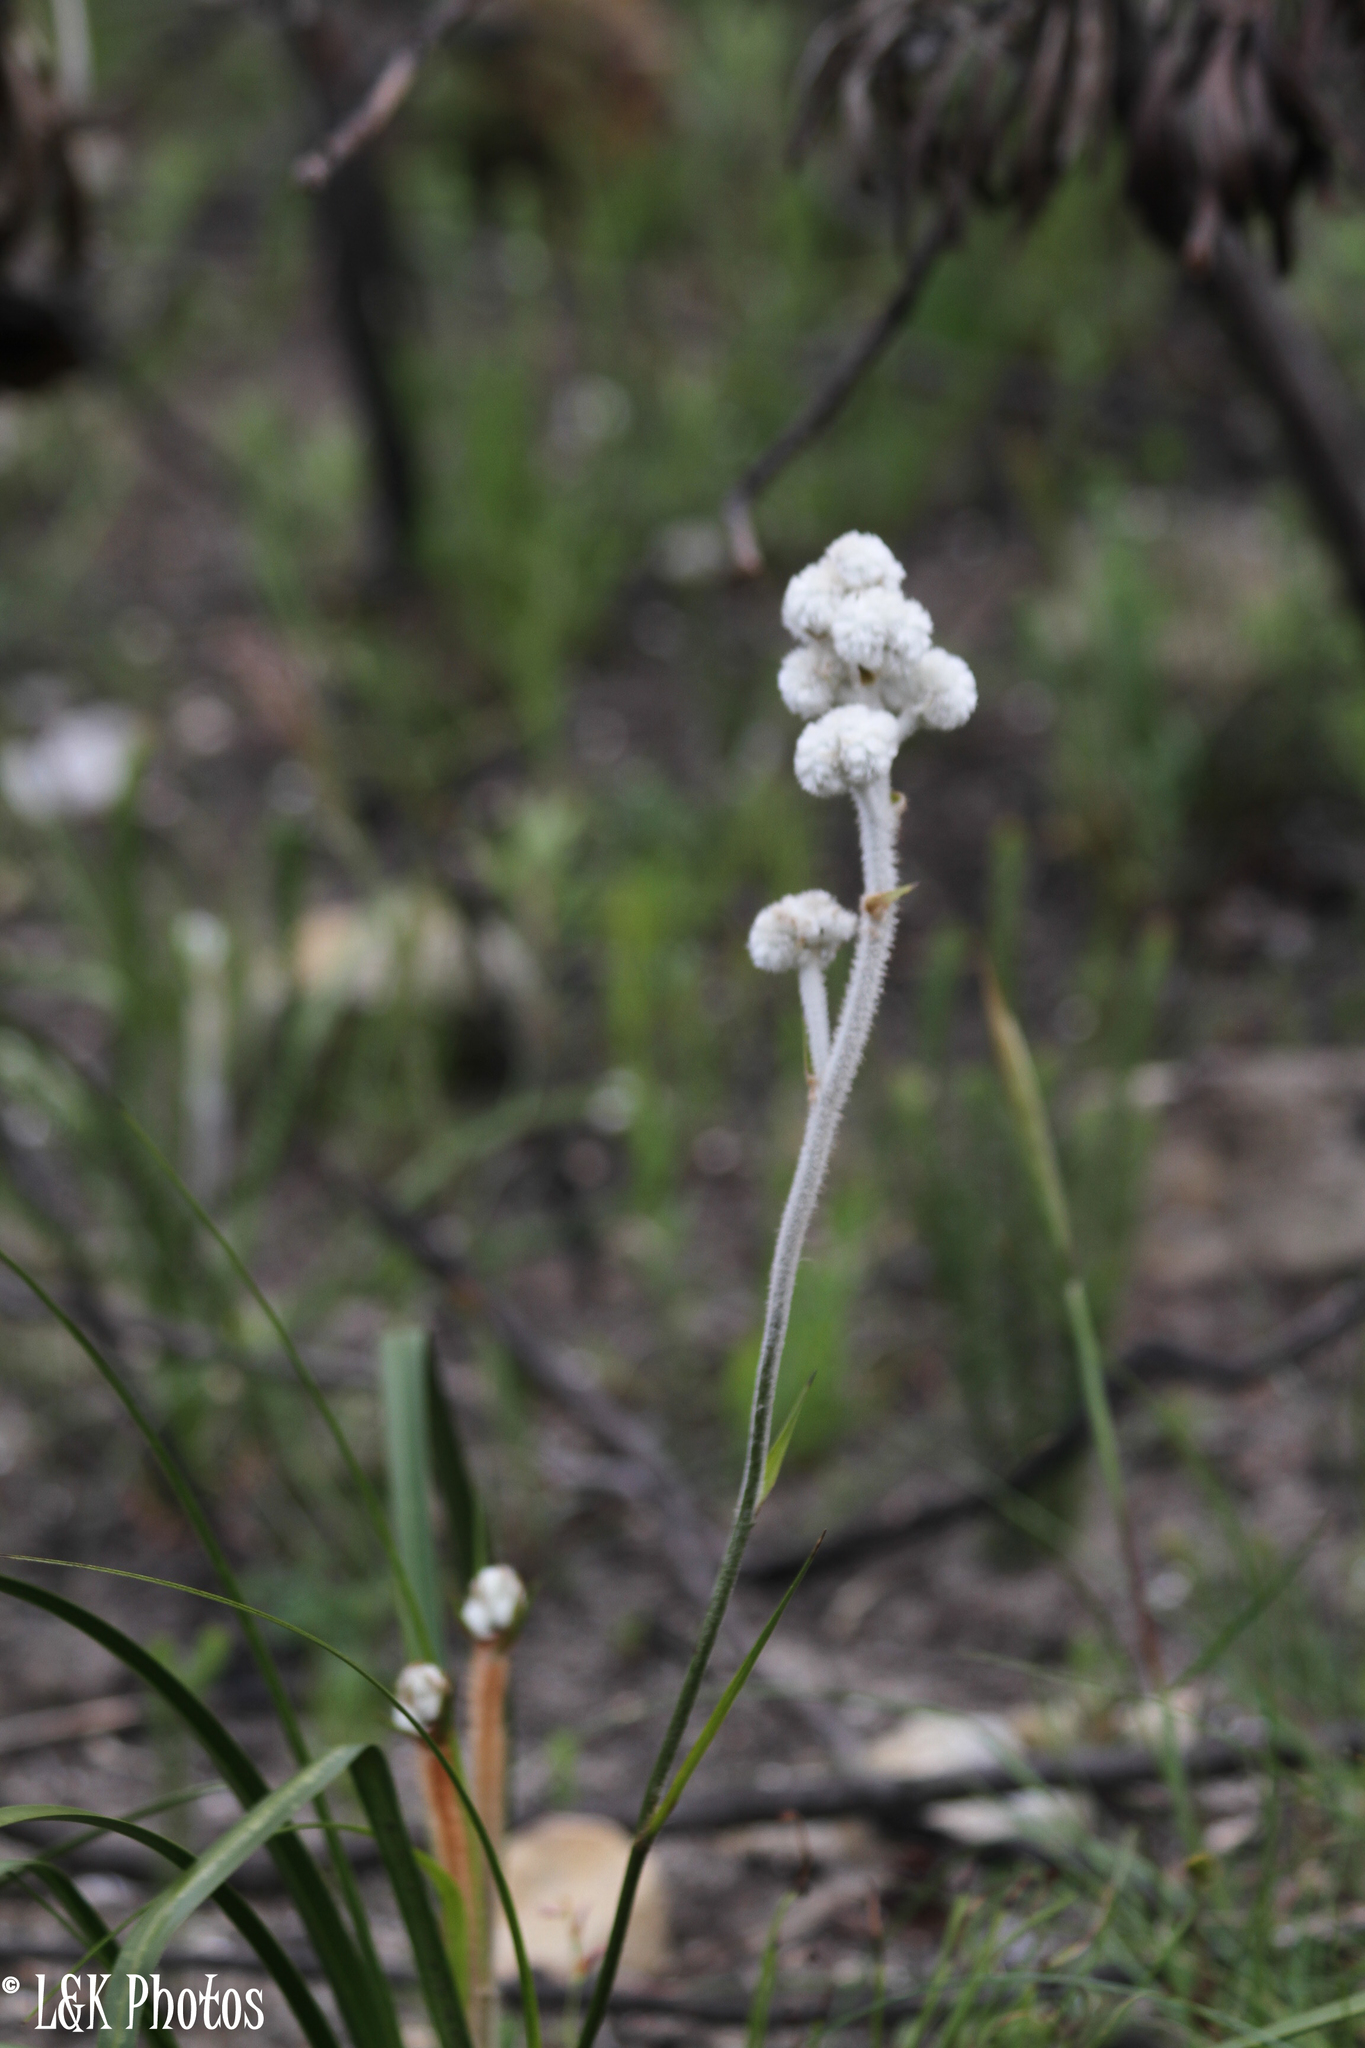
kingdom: Plantae
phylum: Tracheophyta
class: Liliopsida
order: Asparagales
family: Lanariaceae
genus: Lanaria
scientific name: Lanaria lanata
